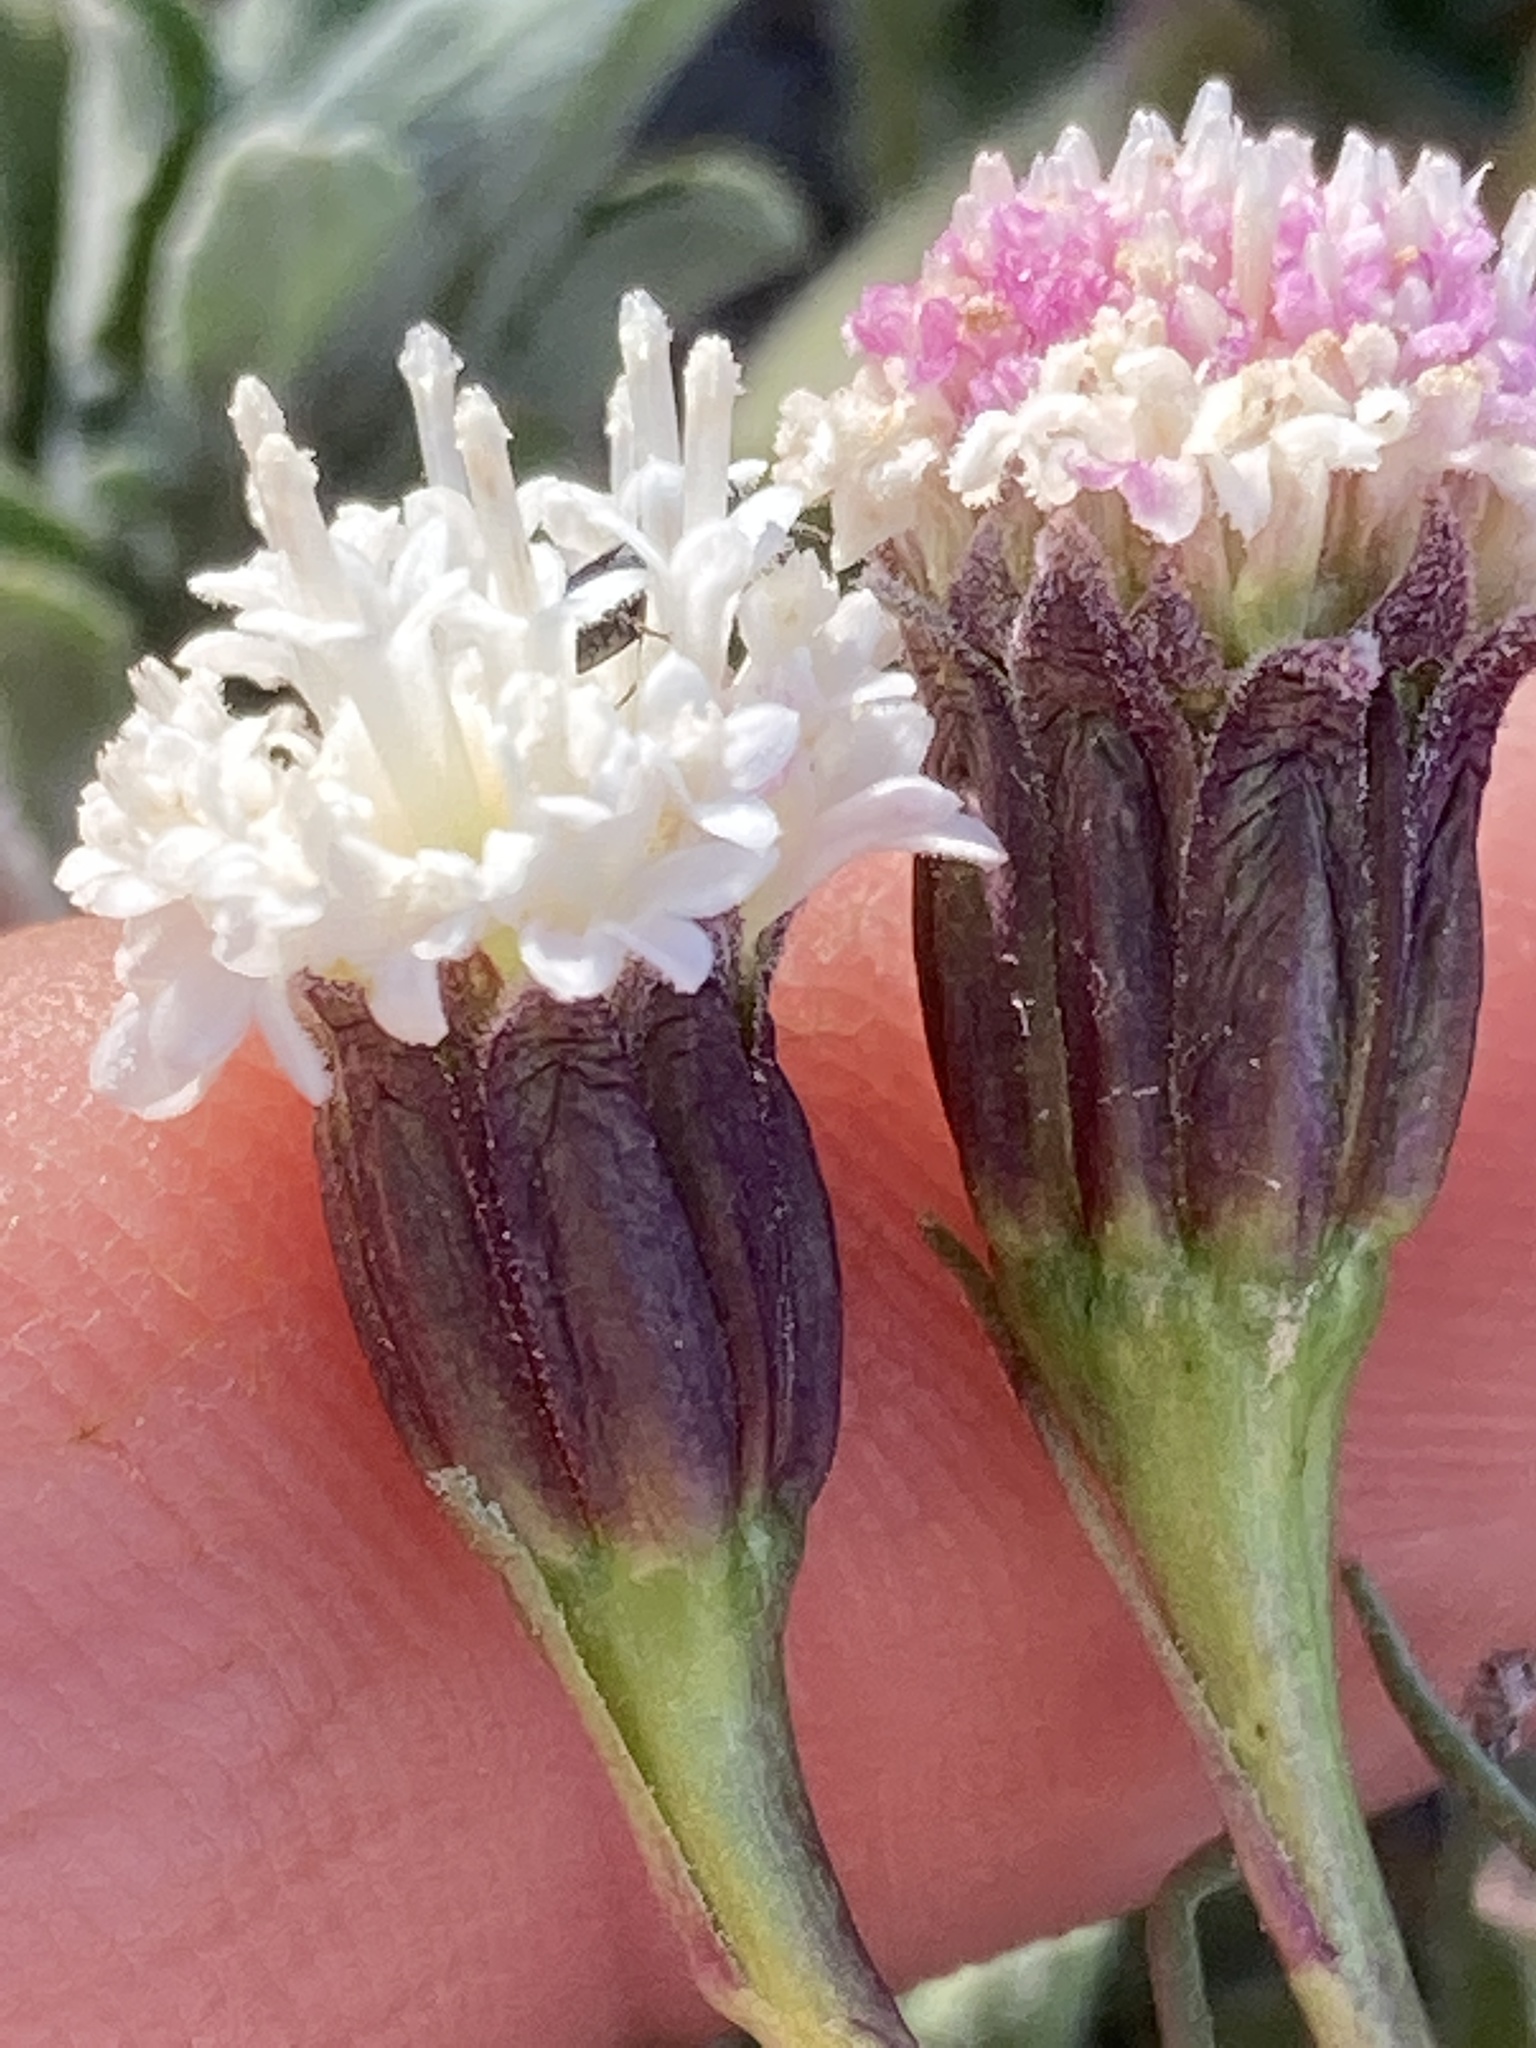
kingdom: Plantae
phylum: Tracheophyta
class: Magnoliopsida
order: Asterales
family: Asteraceae
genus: Chaenactis
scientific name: Chaenactis xantiana
